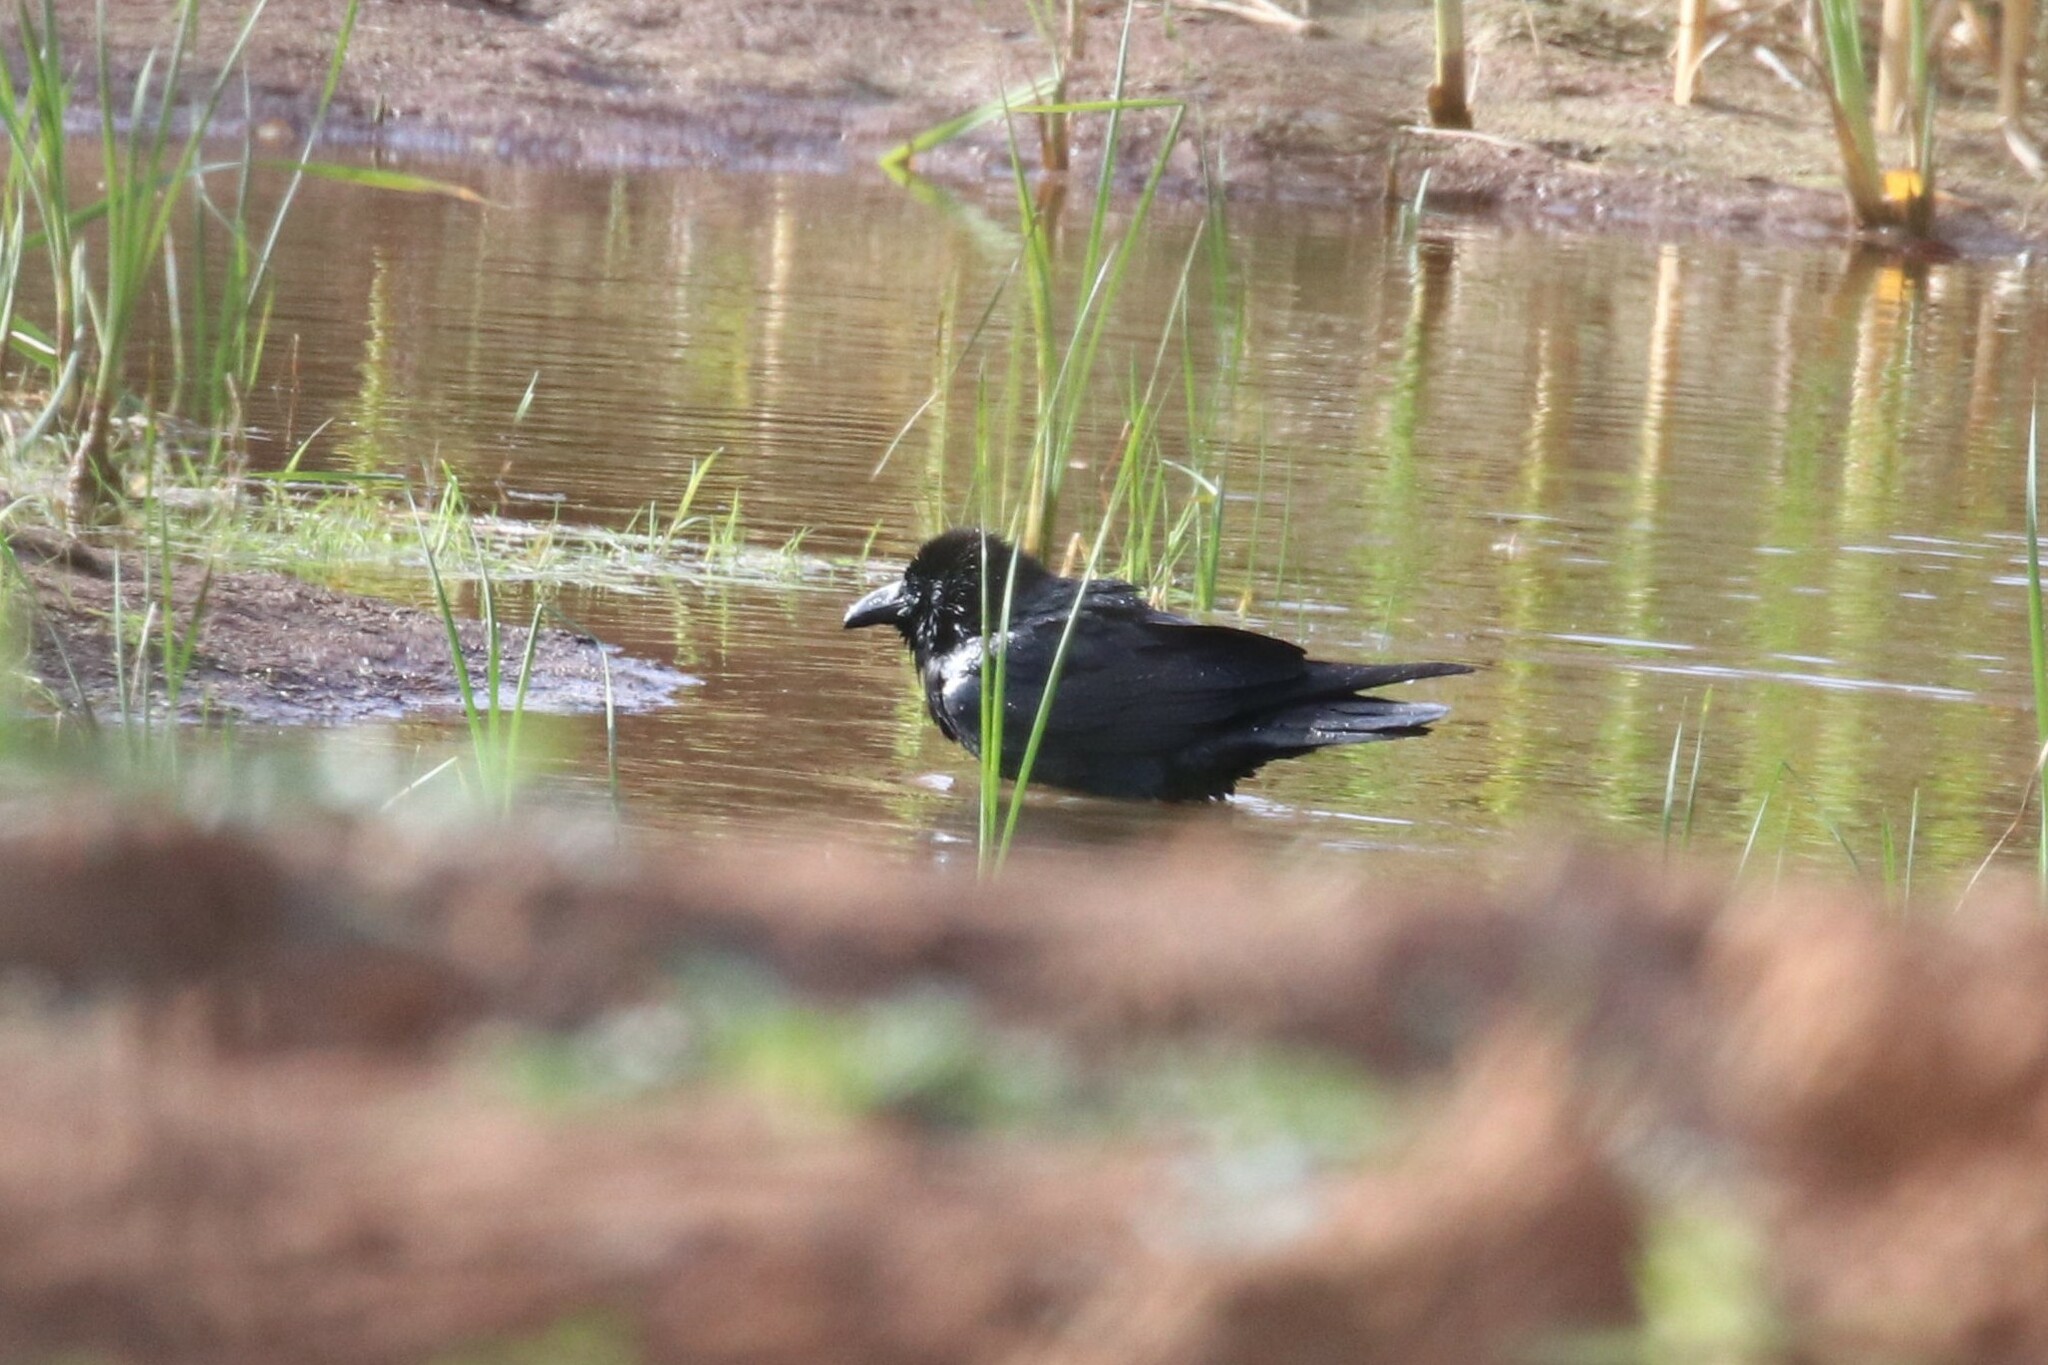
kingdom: Animalia
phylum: Chordata
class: Aves
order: Passeriformes
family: Corvidae
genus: Corvus
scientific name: Corvus corax
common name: Common raven
